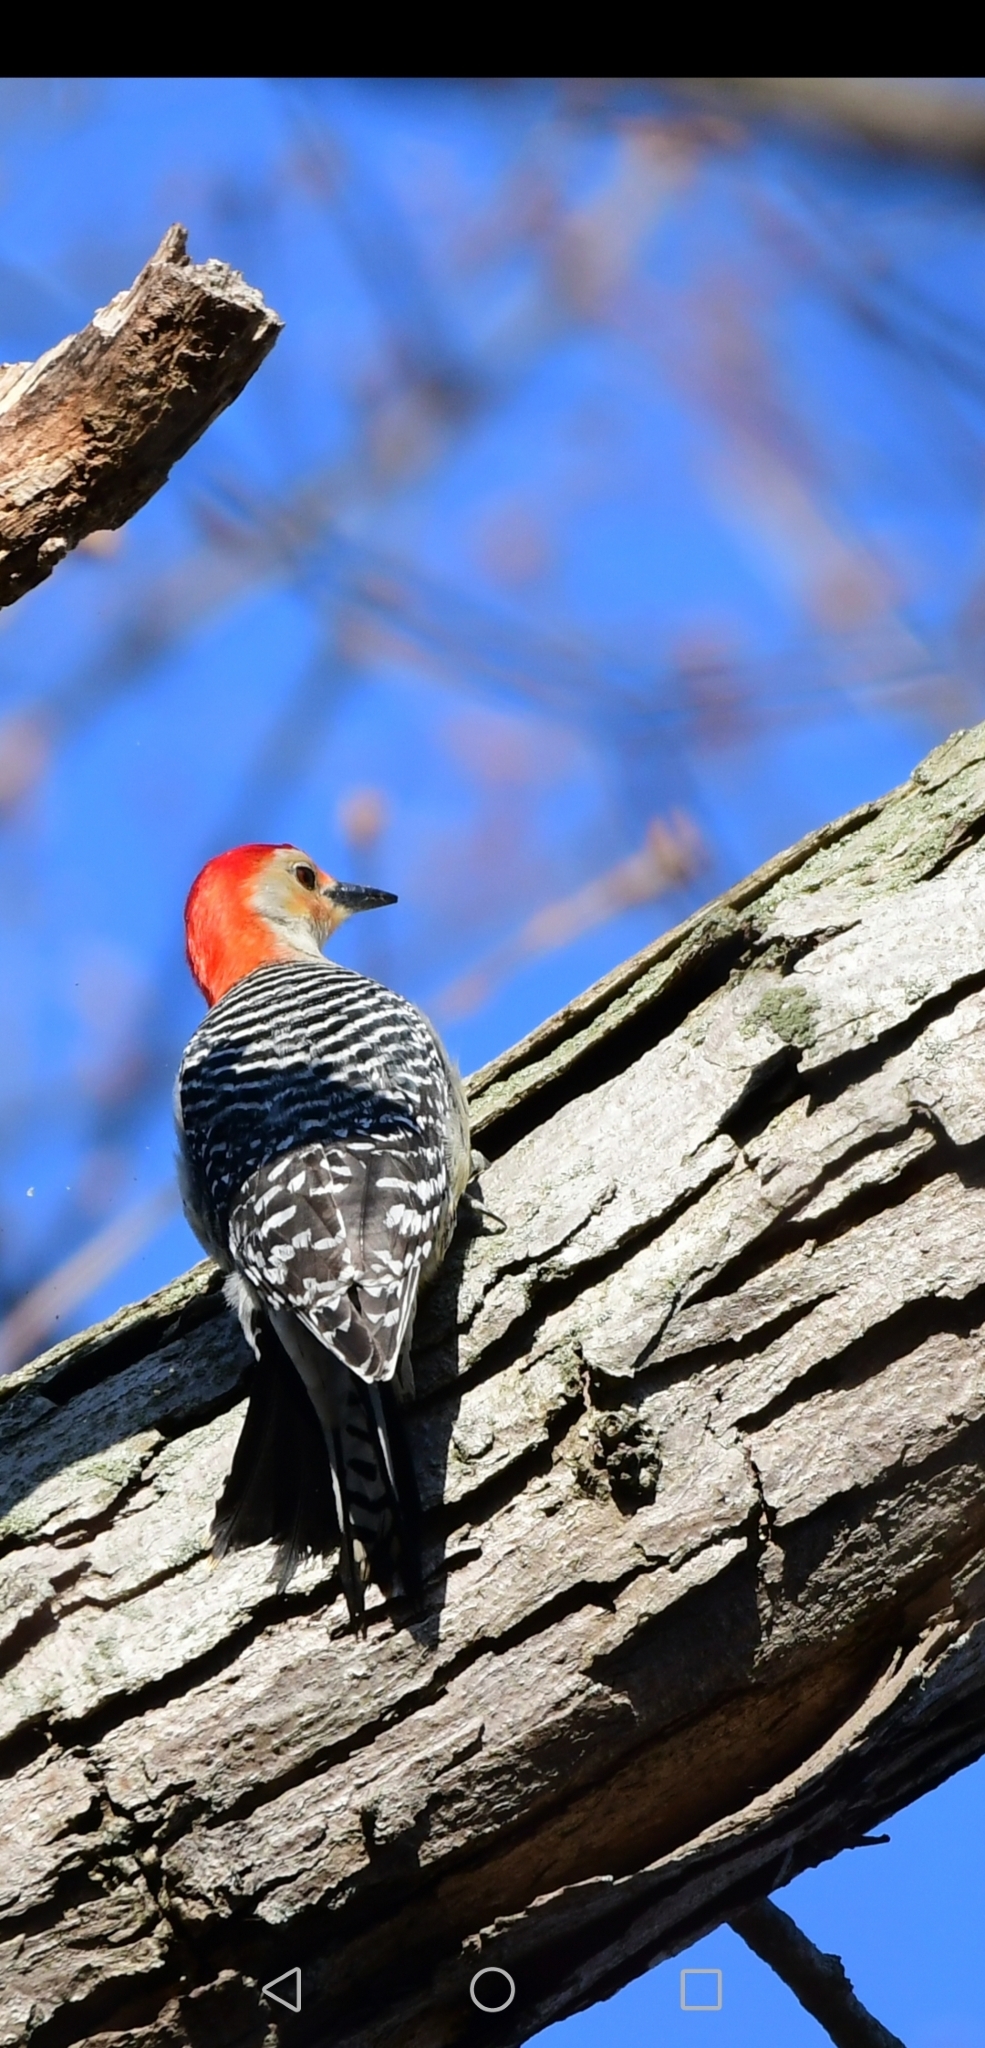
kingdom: Animalia
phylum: Chordata
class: Aves
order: Piciformes
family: Picidae
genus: Melanerpes
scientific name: Melanerpes carolinus
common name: Red-bellied woodpecker
